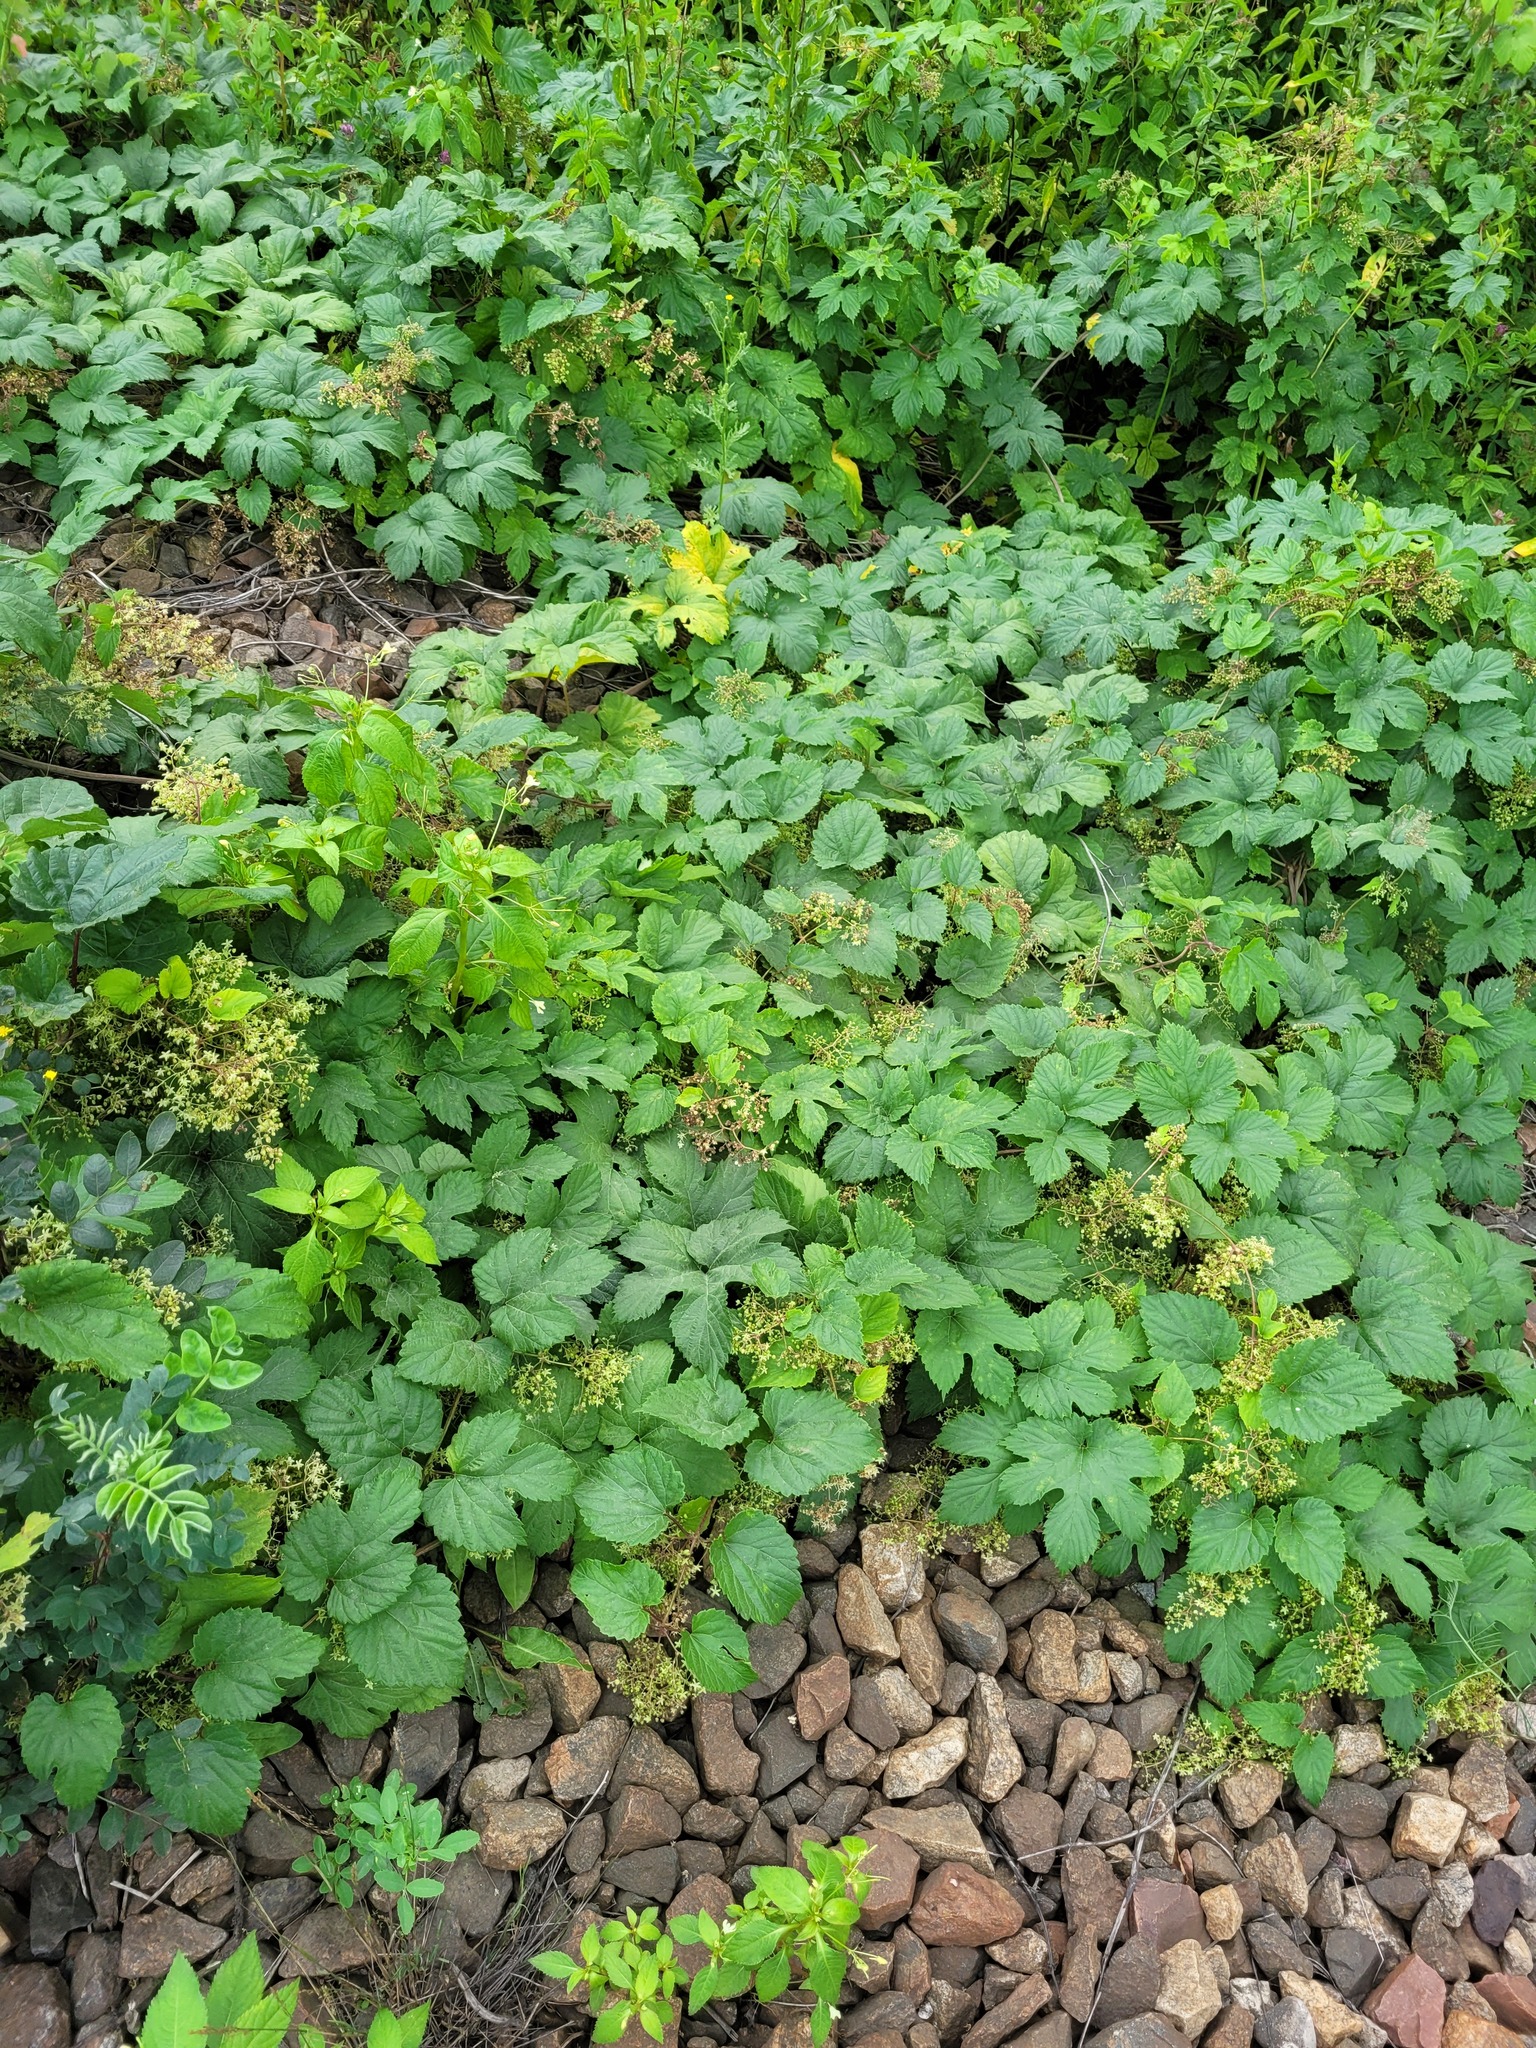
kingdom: Plantae
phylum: Tracheophyta
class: Magnoliopsida
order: Rosales
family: Cannabaceae
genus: Humulus
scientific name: Humulus lupulus
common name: Hop
